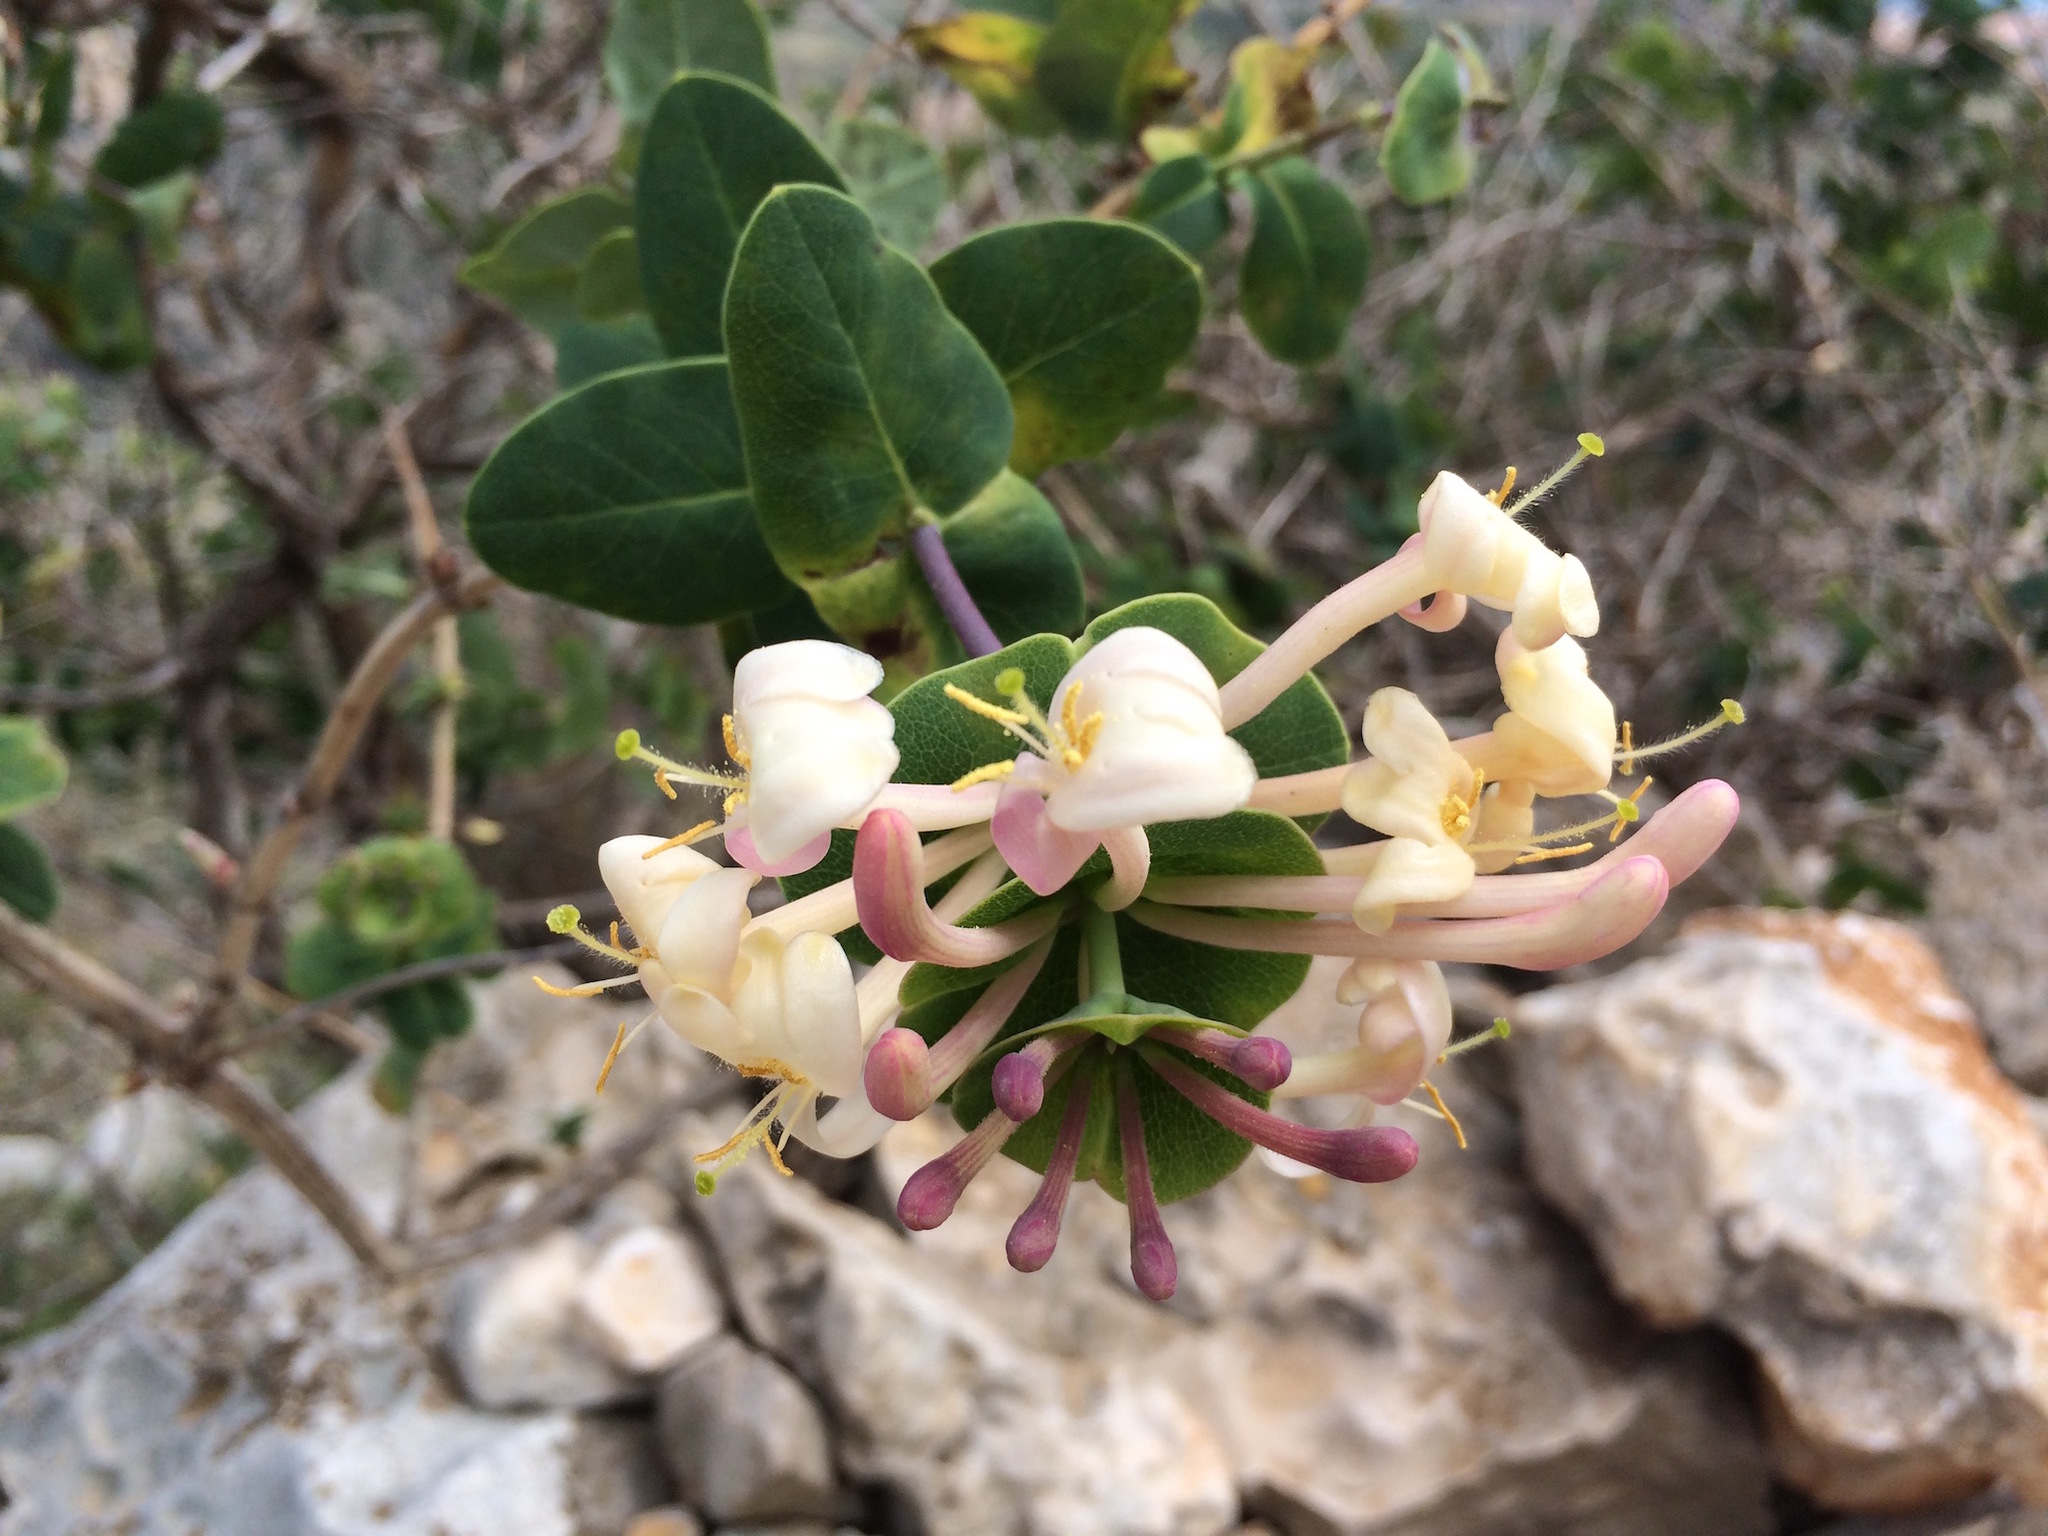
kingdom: Plantae
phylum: Tracheophyta
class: Magnoliopsida
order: Dipsacales
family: Caprifoliaceae
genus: Lonicera
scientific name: Lonicera implexa
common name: Minorca honeysuckle
